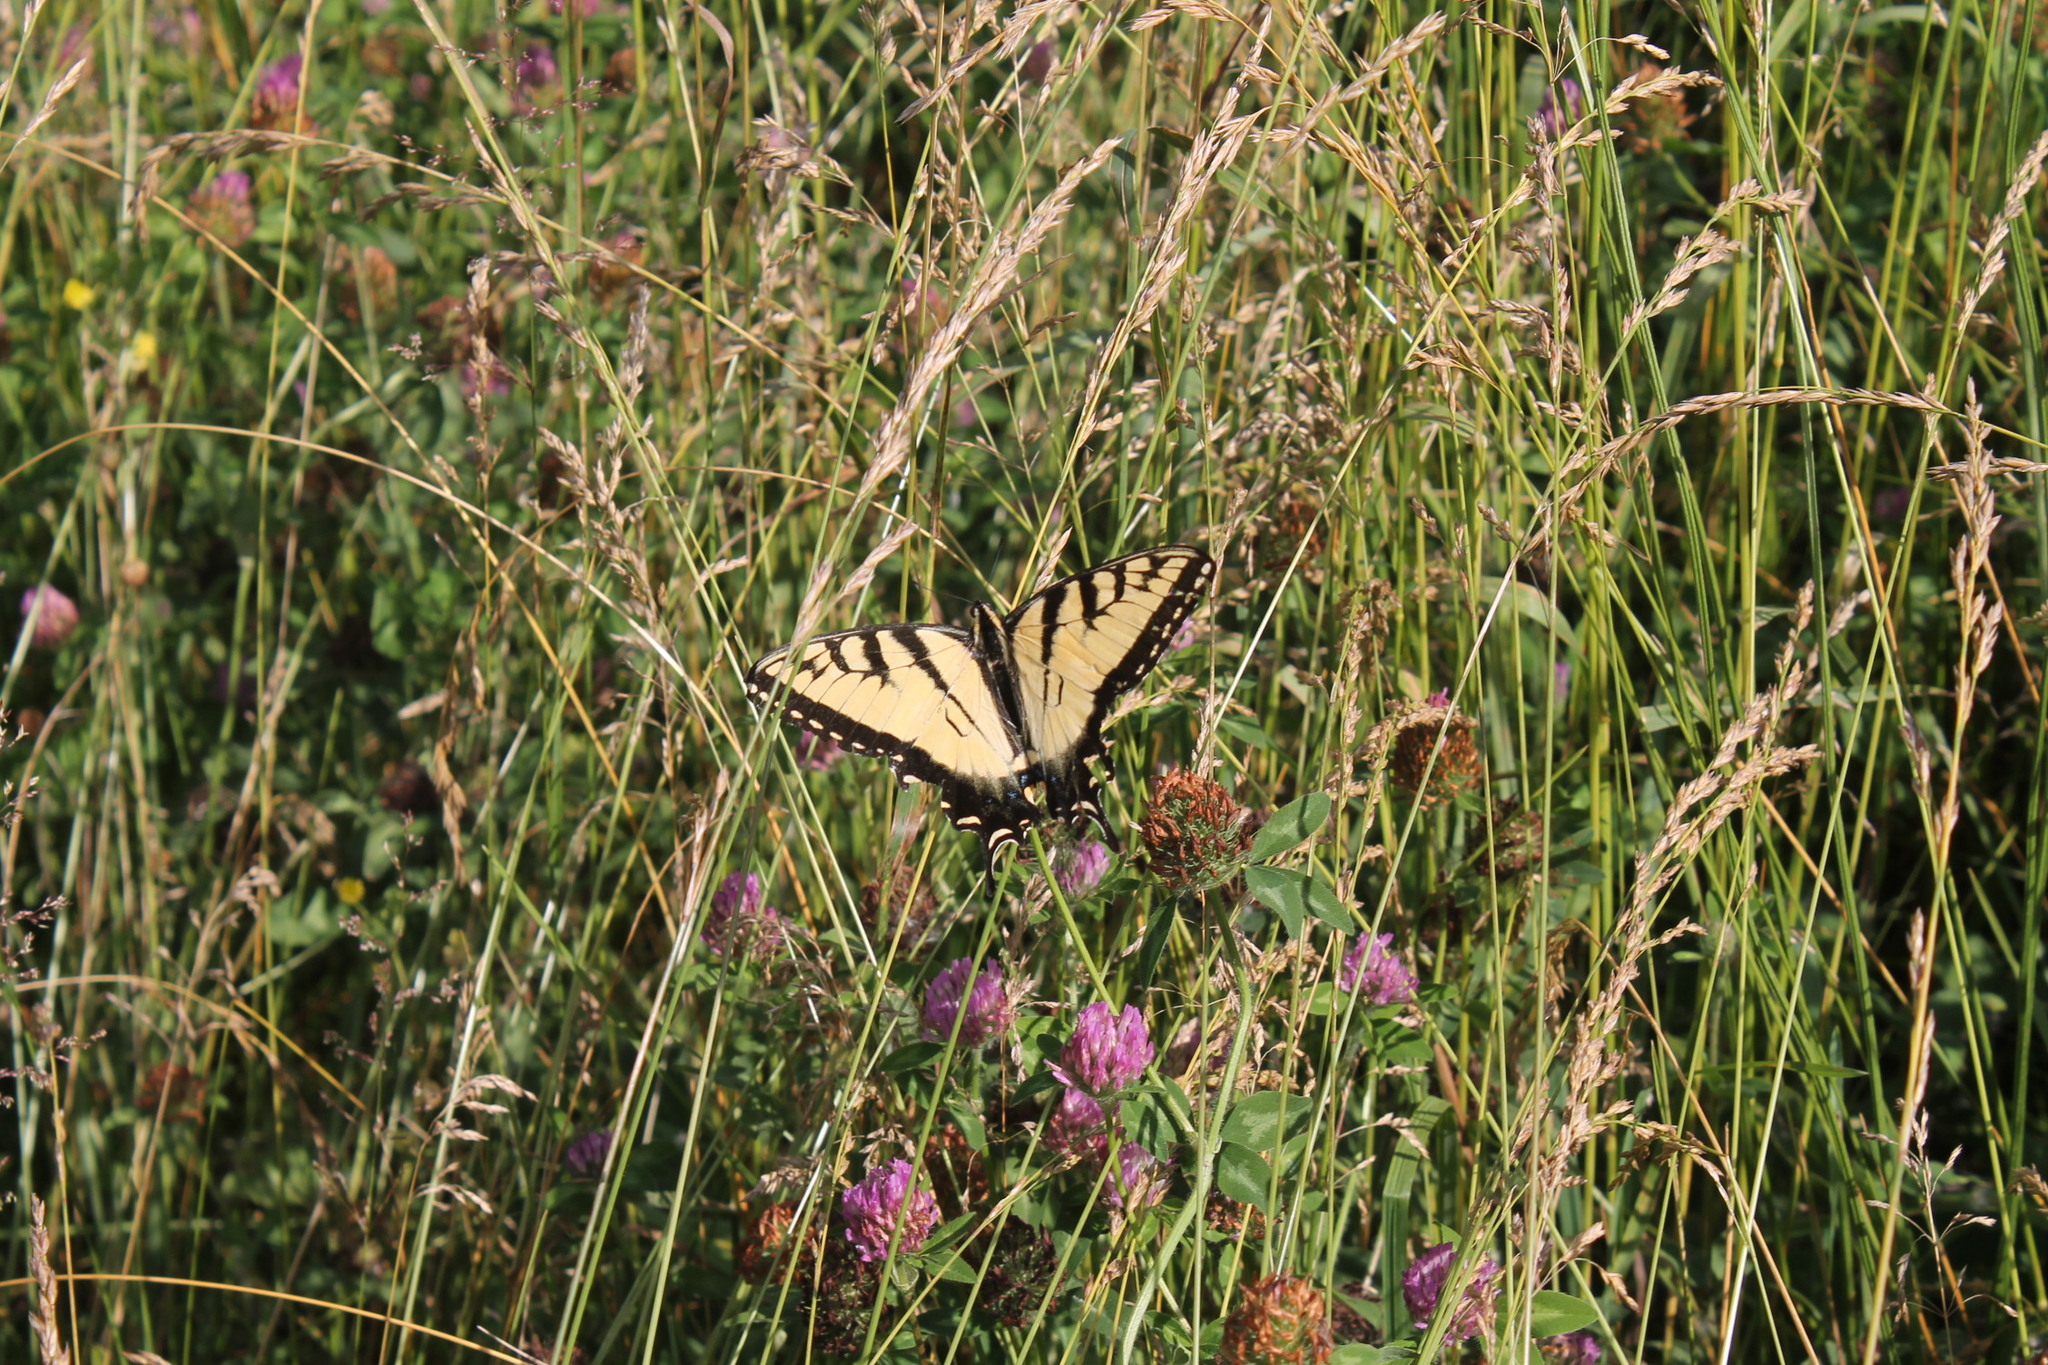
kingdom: Animalia
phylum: Arthropoda
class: Insecta
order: Lepidoptera
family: Papilionidae
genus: Papilio
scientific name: Papilio glaucus
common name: Tiger swallowtail
